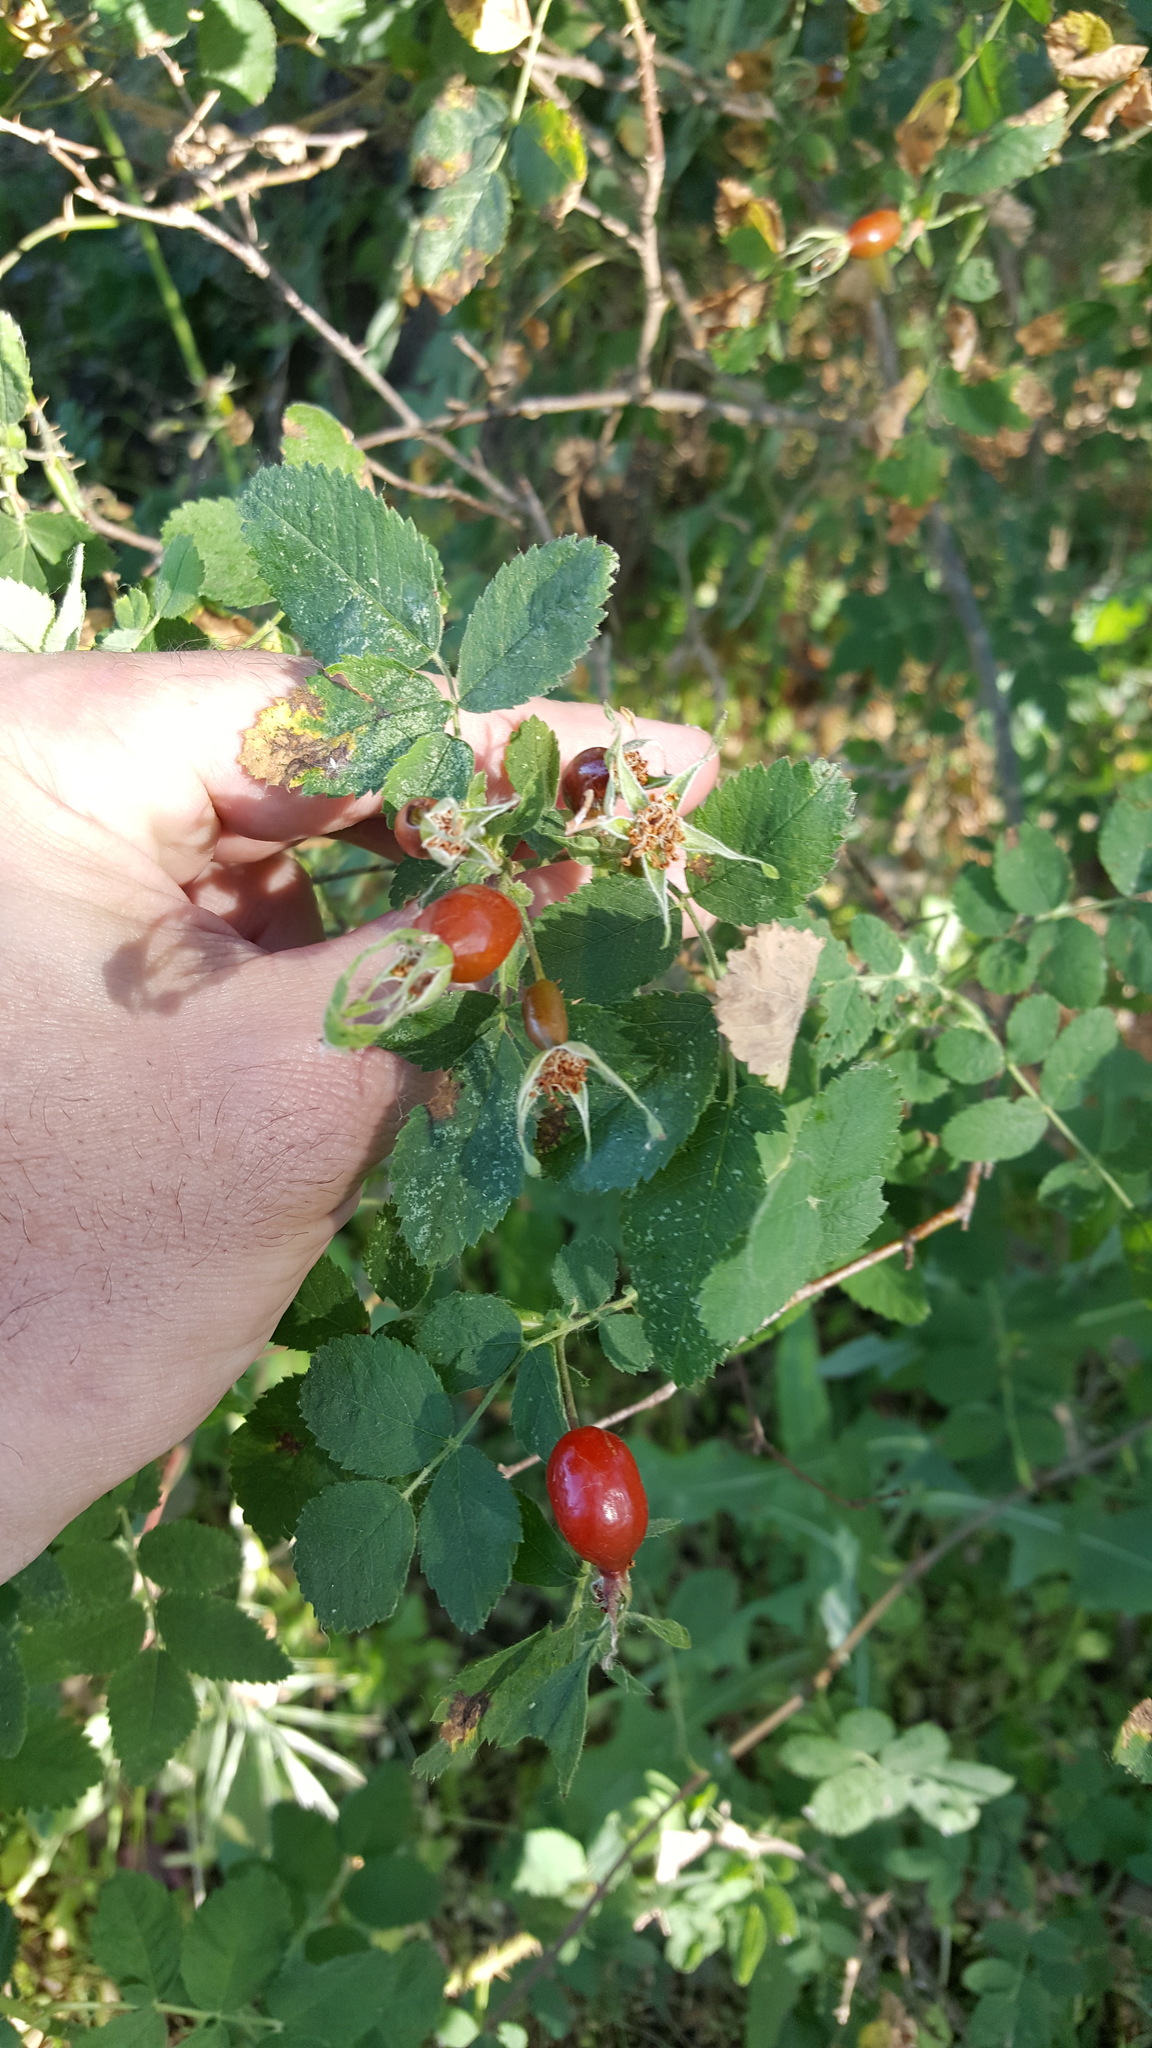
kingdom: Plantae
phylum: Tracheophyta
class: Magnoliopsida
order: Rosales
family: Rosaceae
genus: Rosa
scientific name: Rosa californica
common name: California rose
